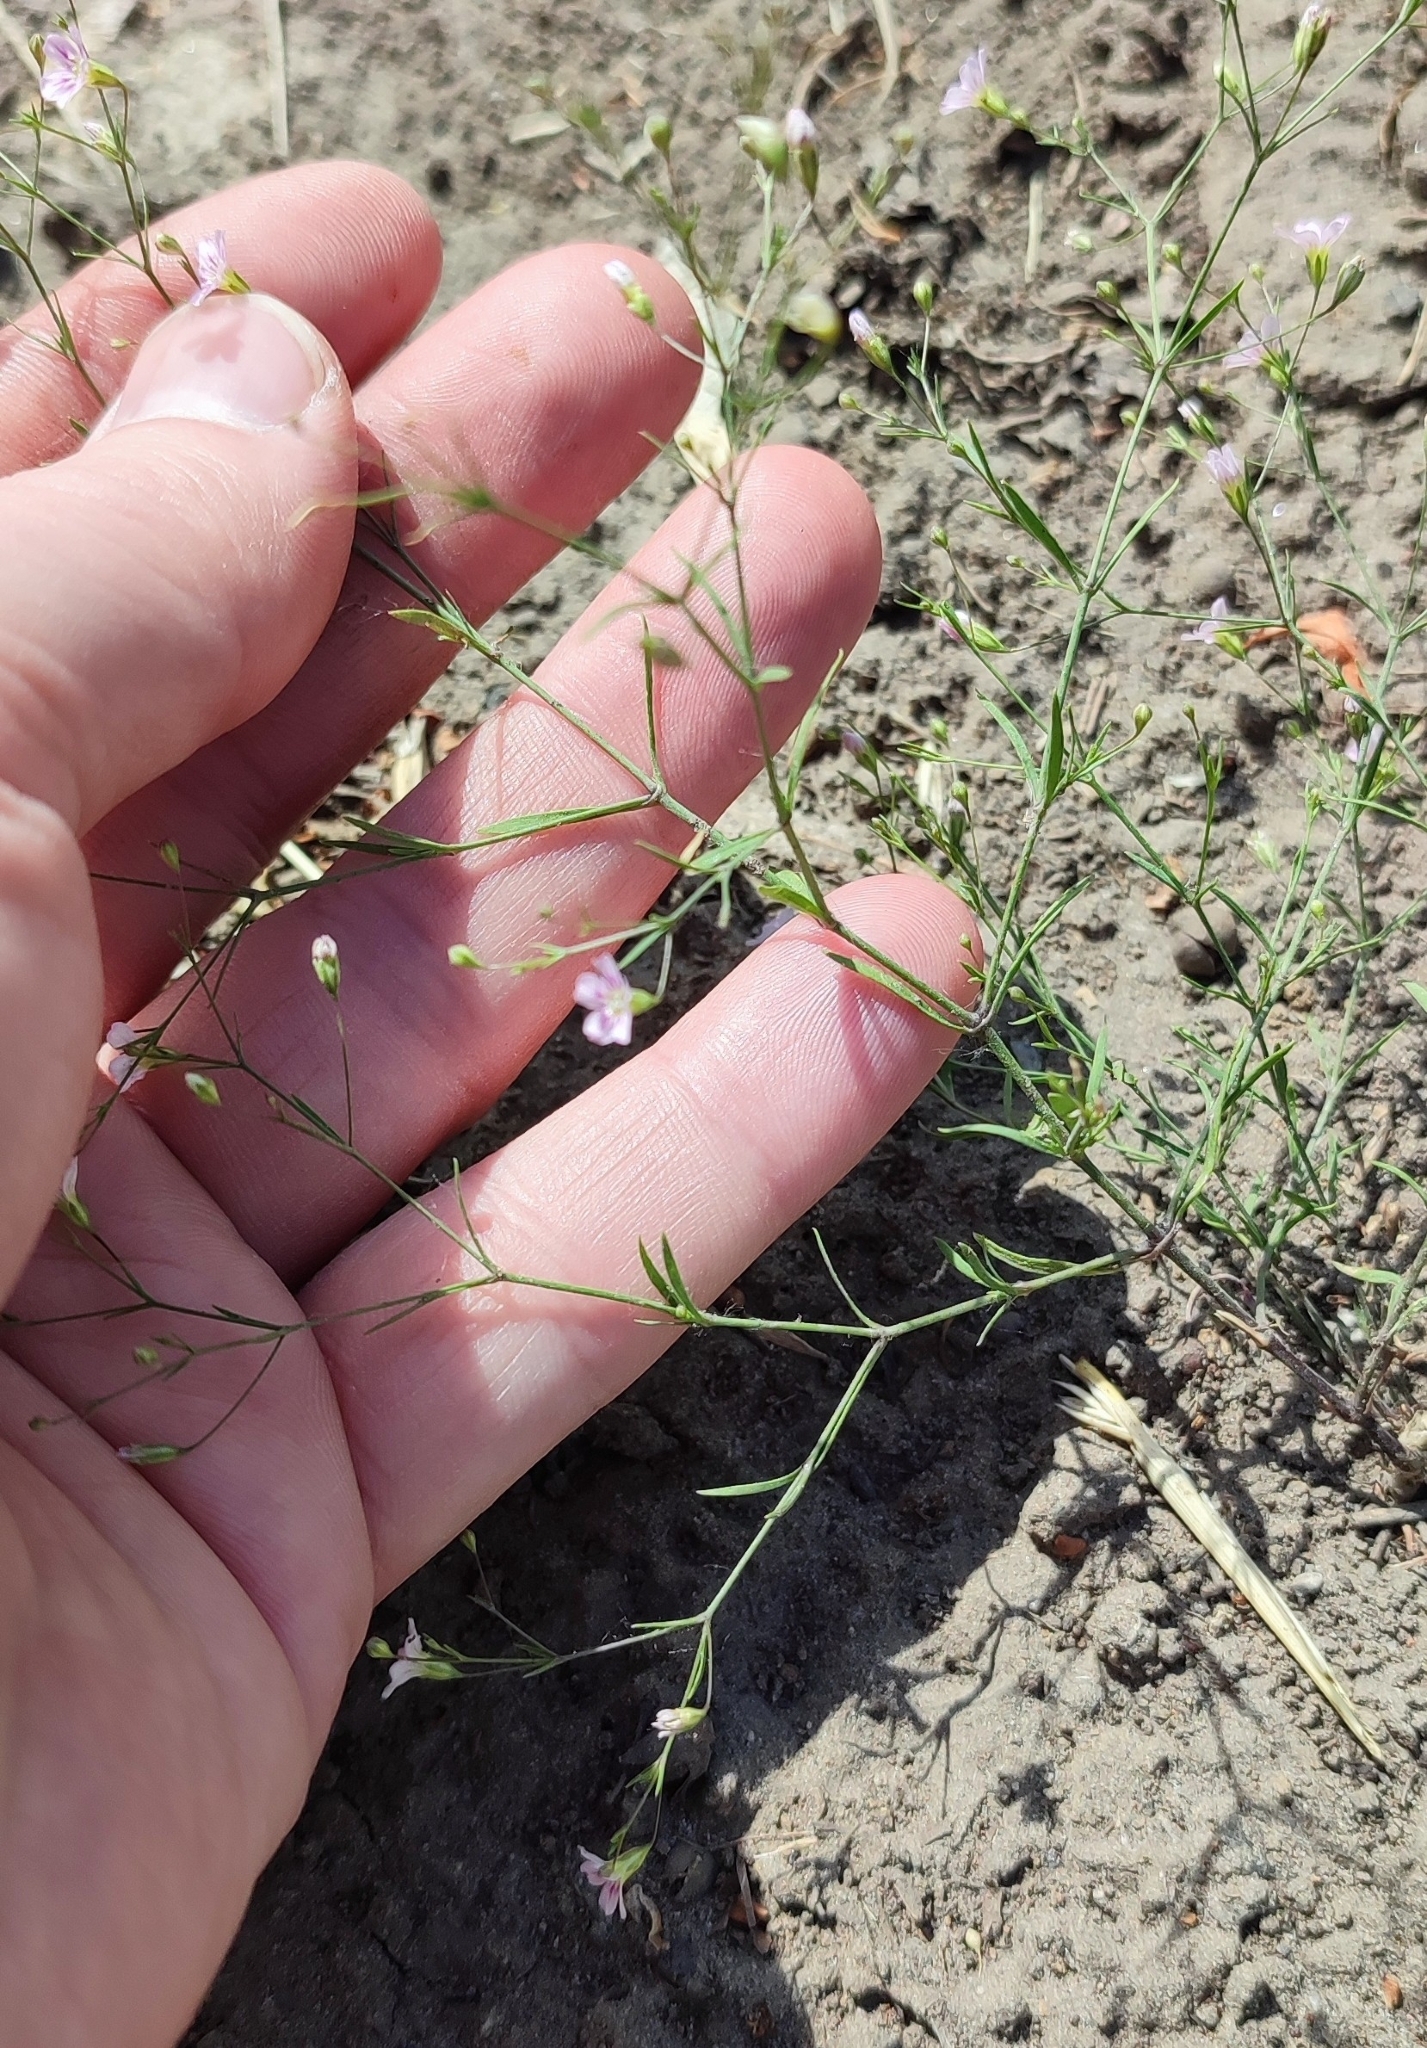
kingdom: Plantae
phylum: Tracheophyta
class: Magnoliopsida
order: Caryophyllales
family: Caryophyllaceae
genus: Psammophiliella
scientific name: Psammophiliella muralis
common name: Cushion baby's-breath
